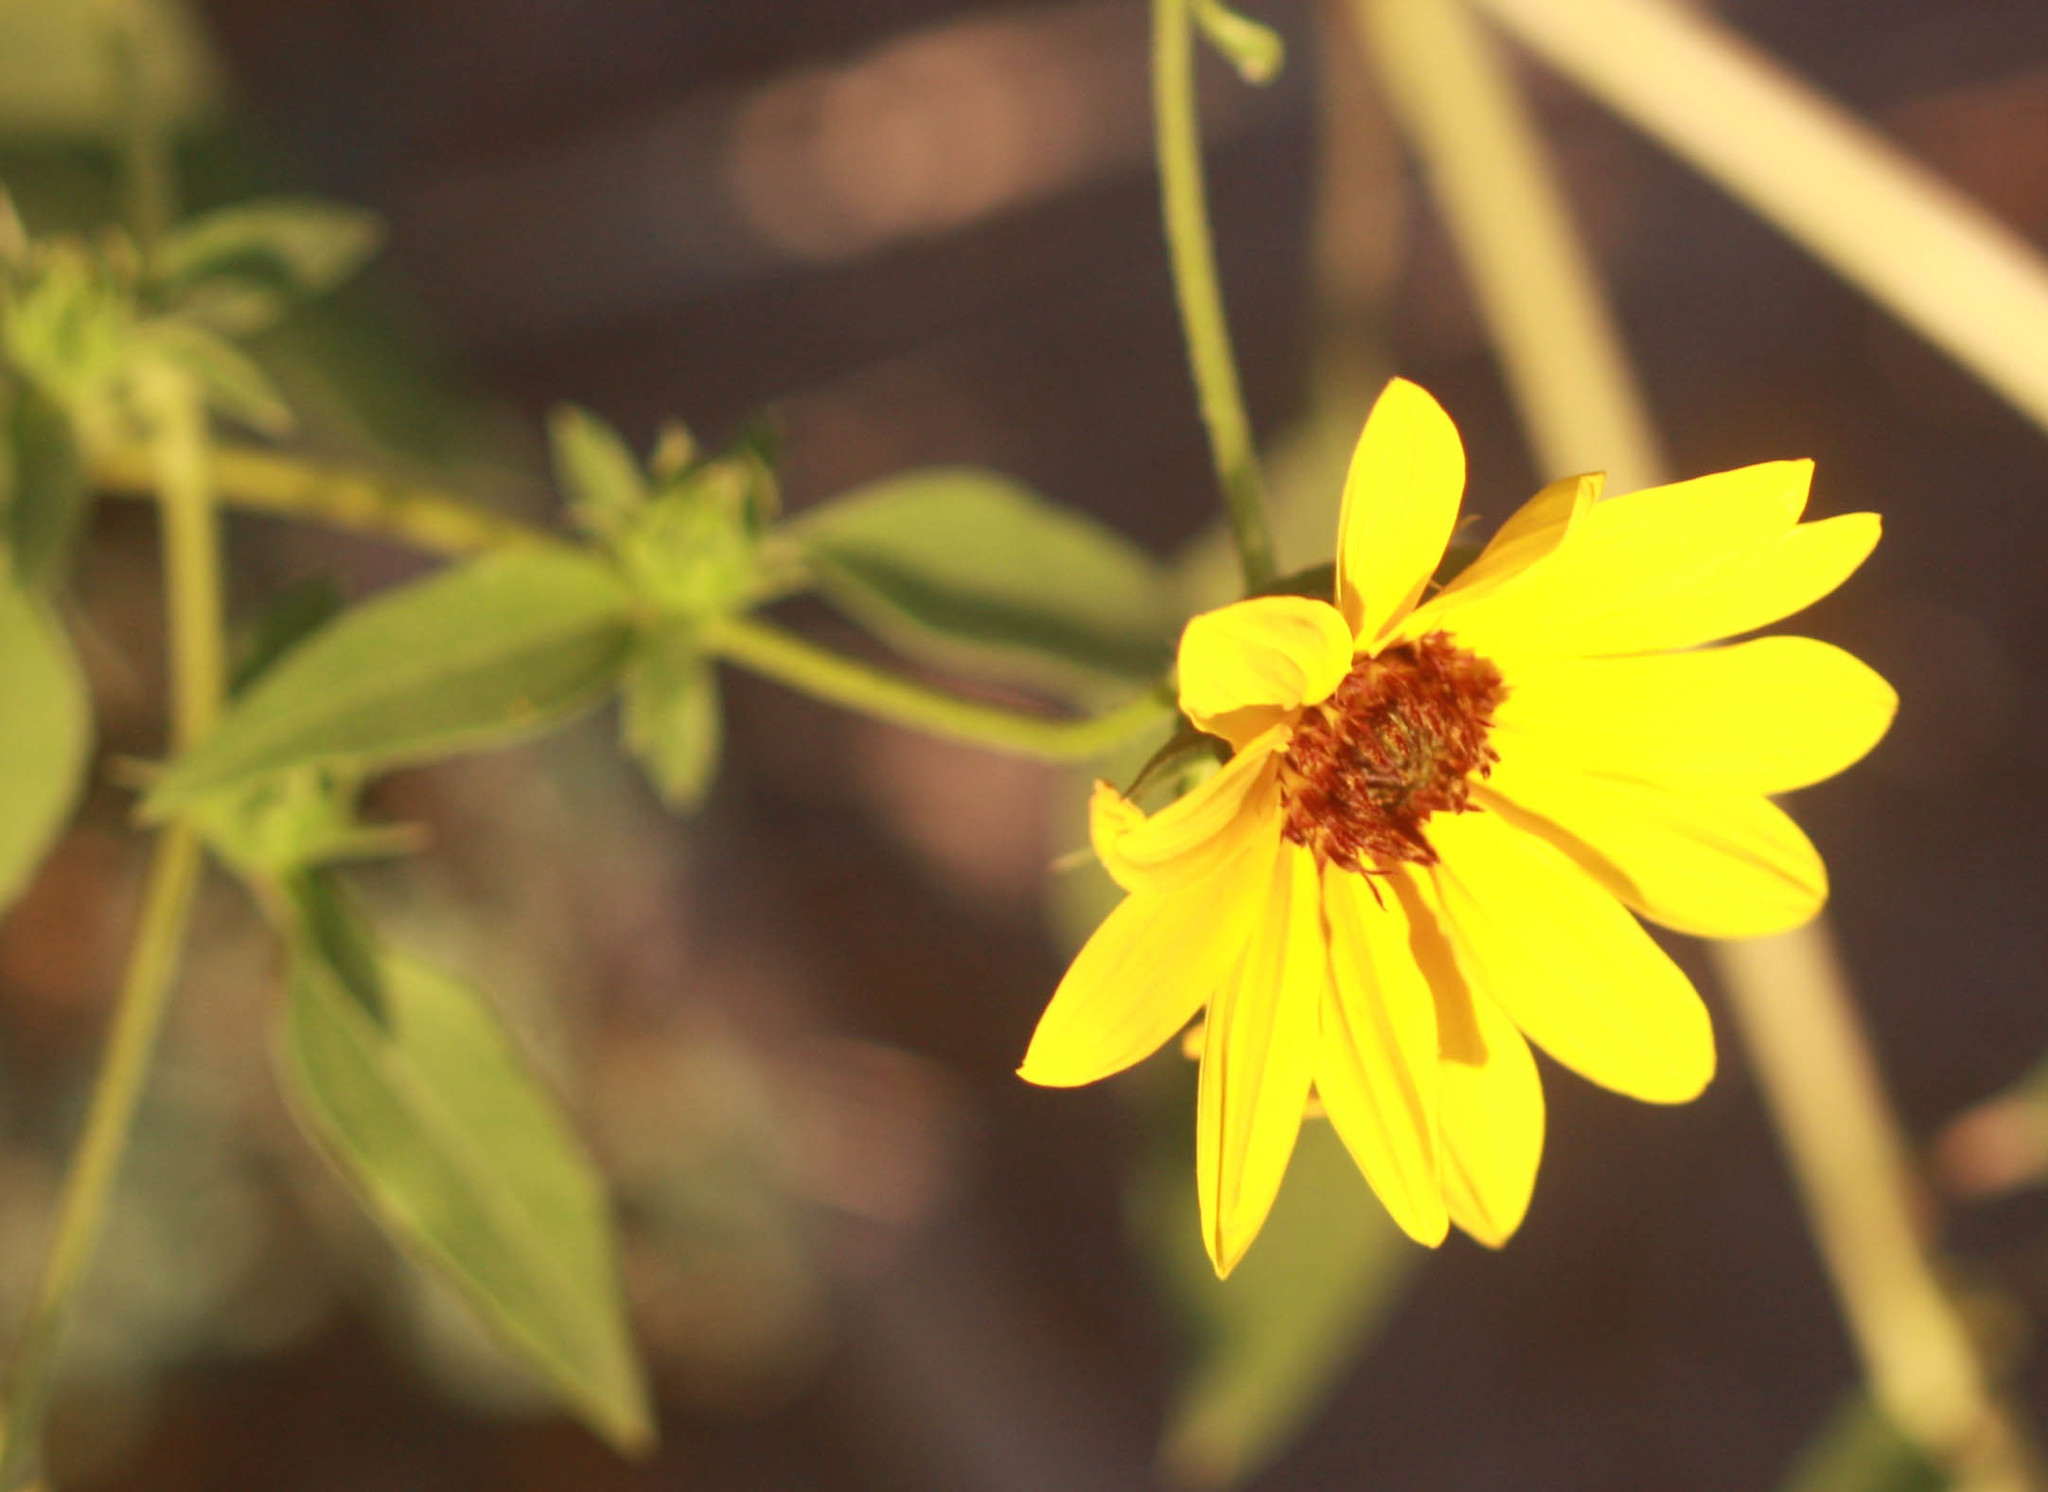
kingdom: Plantae
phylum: Tracheophyta
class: Magnoliopsida
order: Asterales
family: Asteraceae
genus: Helianthus
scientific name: Helianthus annuus
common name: Sunflower
